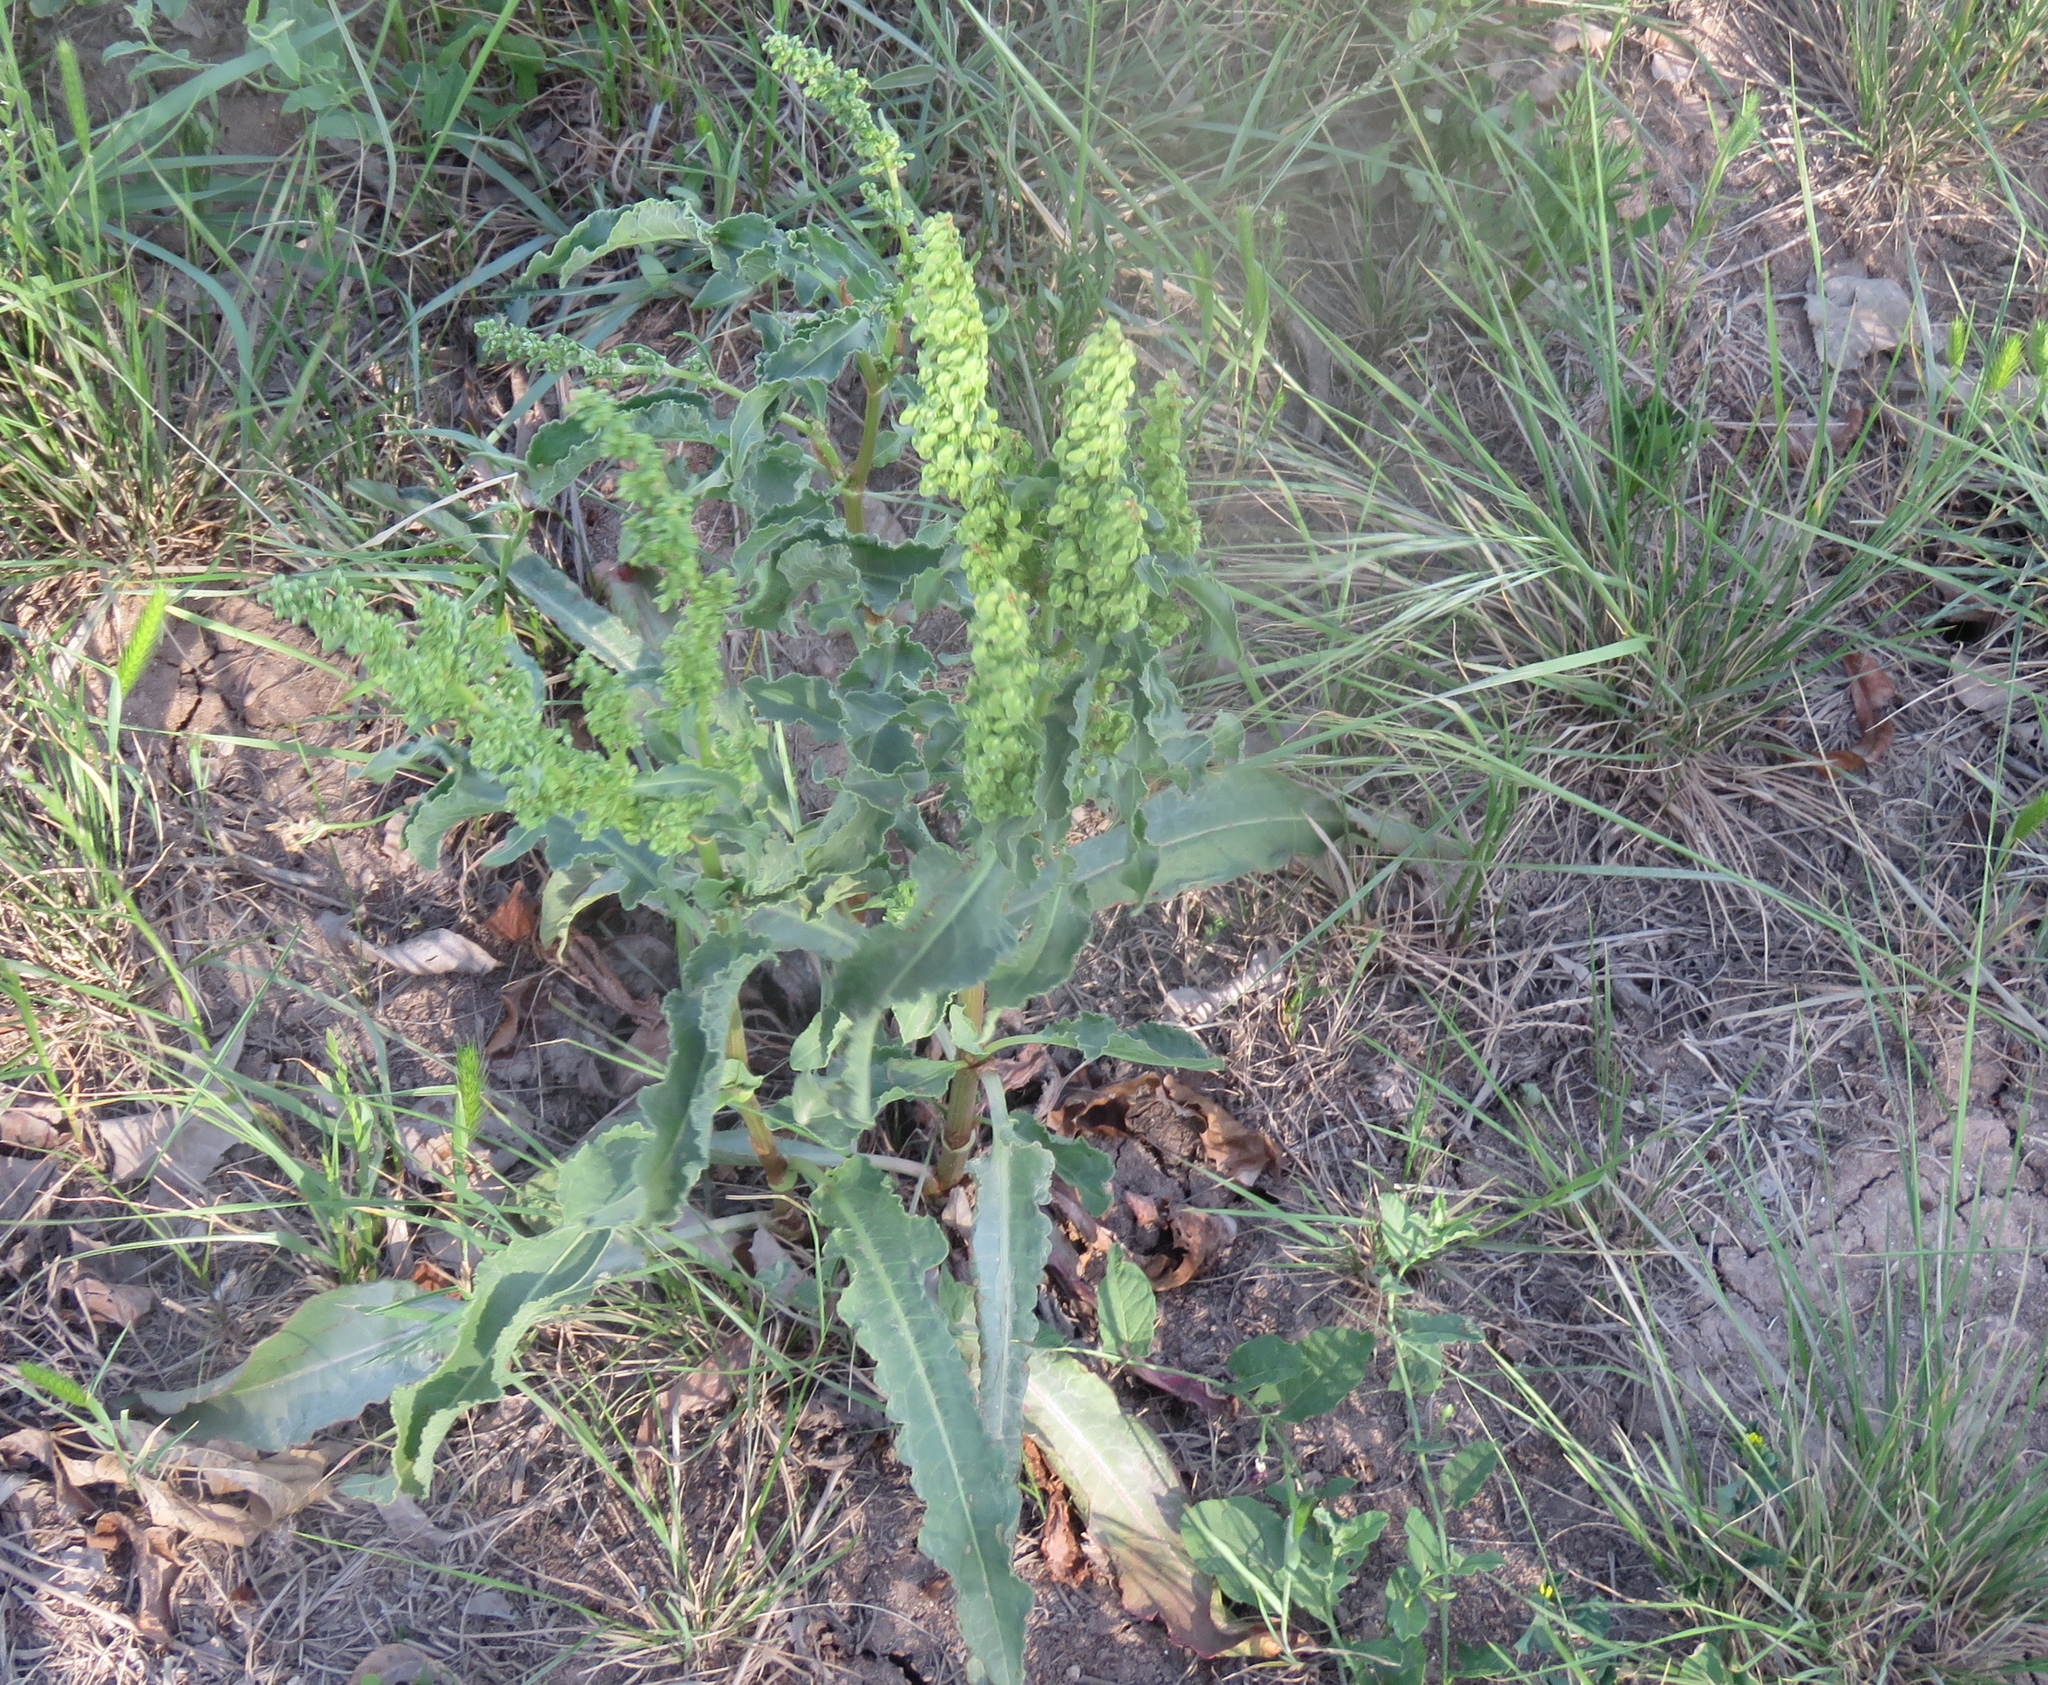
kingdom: Plantae
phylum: Tracheophyta
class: Magnoliopsida
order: Caryophyllales
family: Polygonaceae
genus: Rumex
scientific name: Rumex crispus
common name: Curled dock
